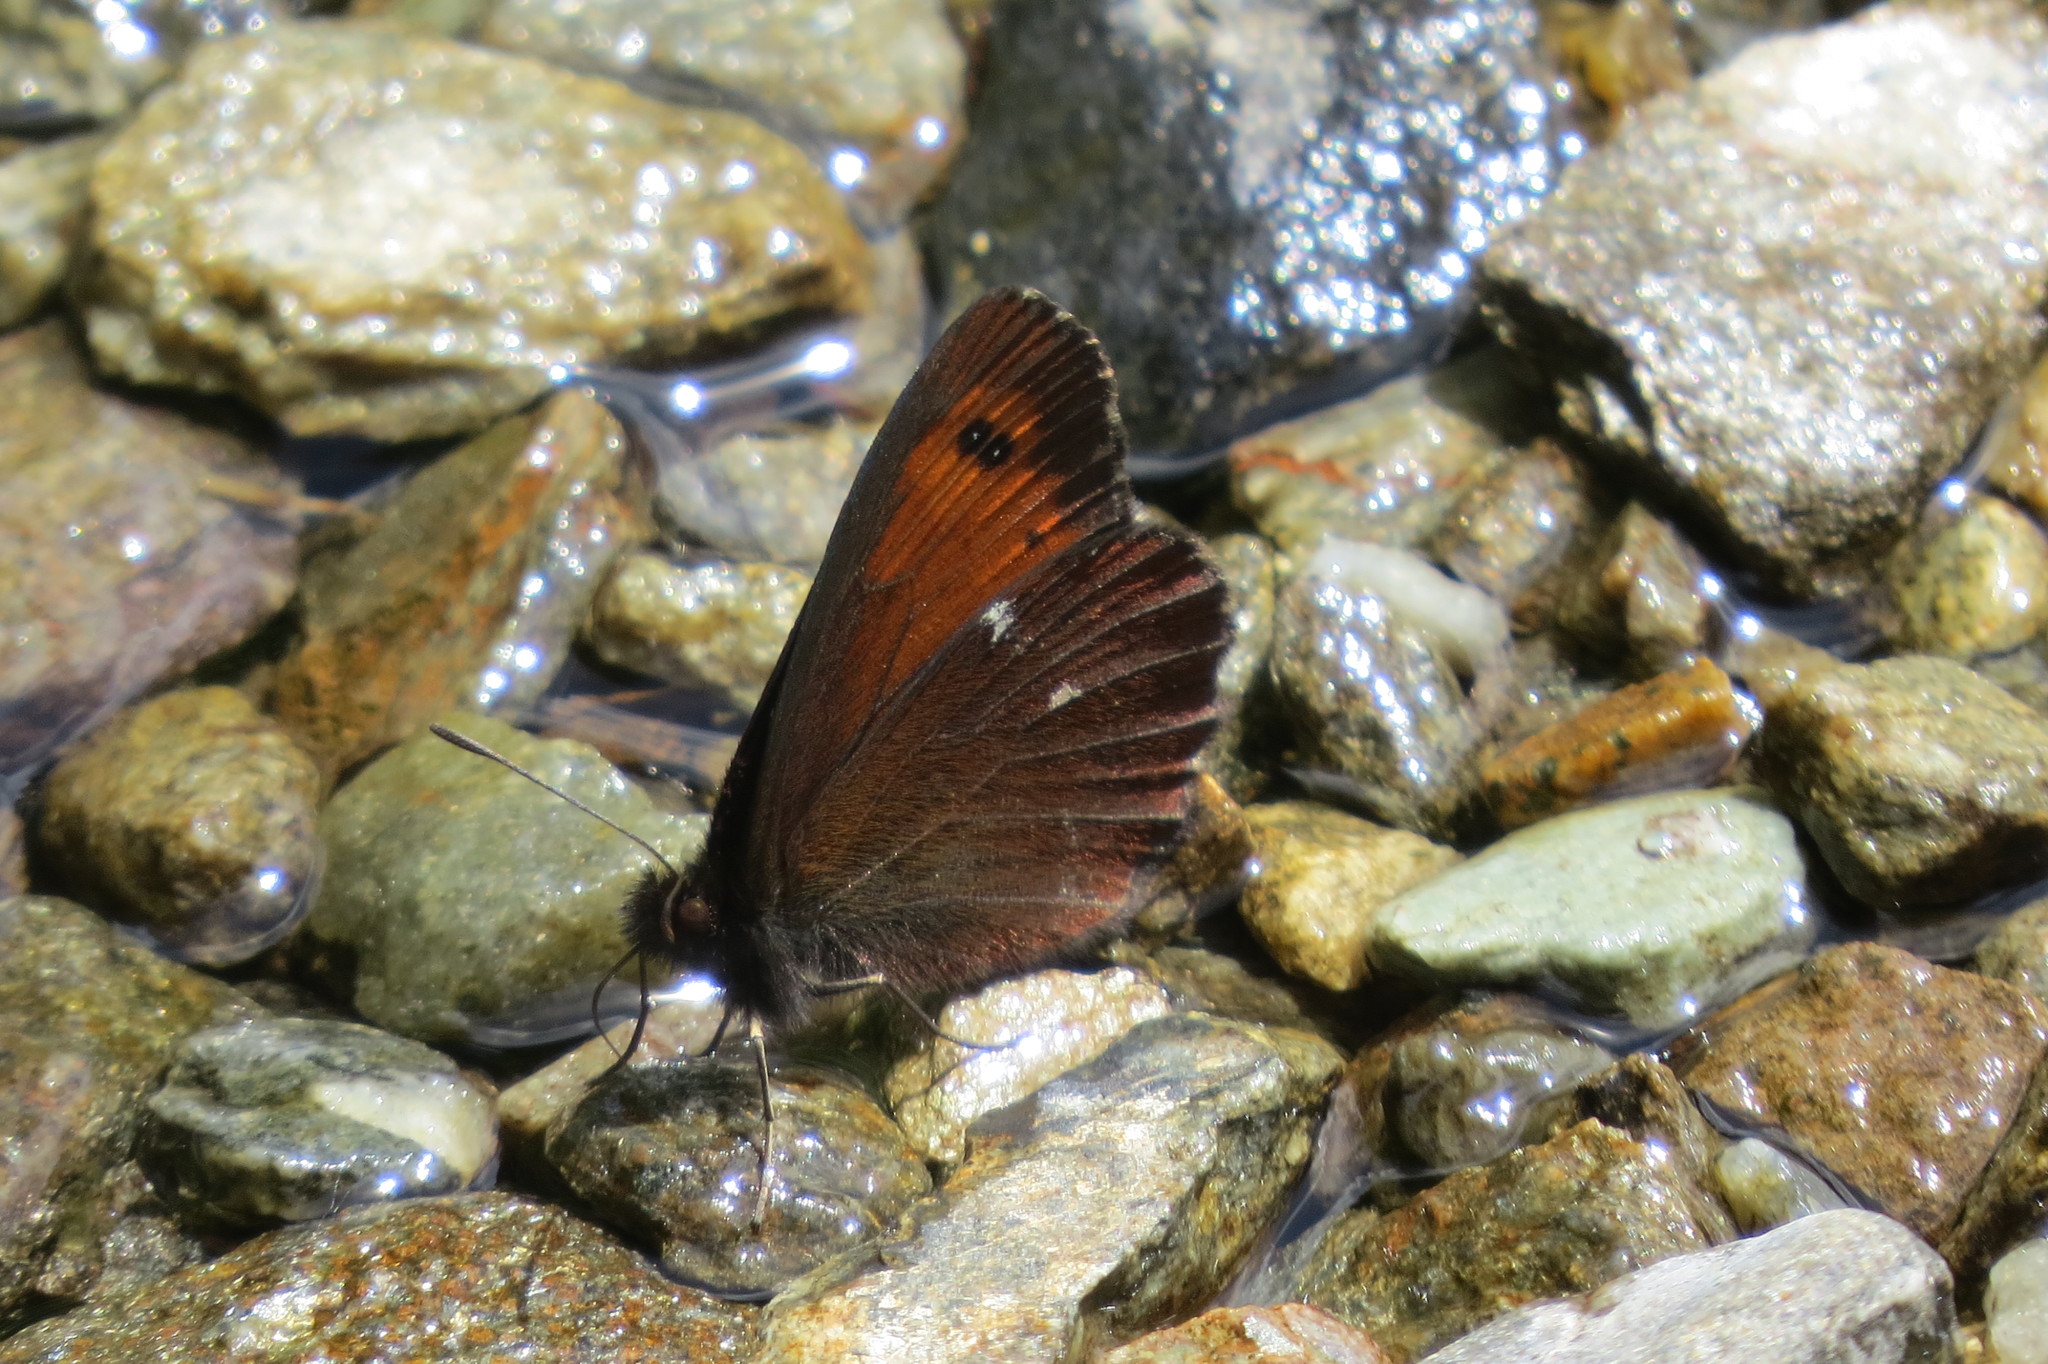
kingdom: Animalia
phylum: Arthropoda
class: Insecta
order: Lepidoptera
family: Nymphalidae
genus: Erebia
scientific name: Erebia euryale
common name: Large ringlet
